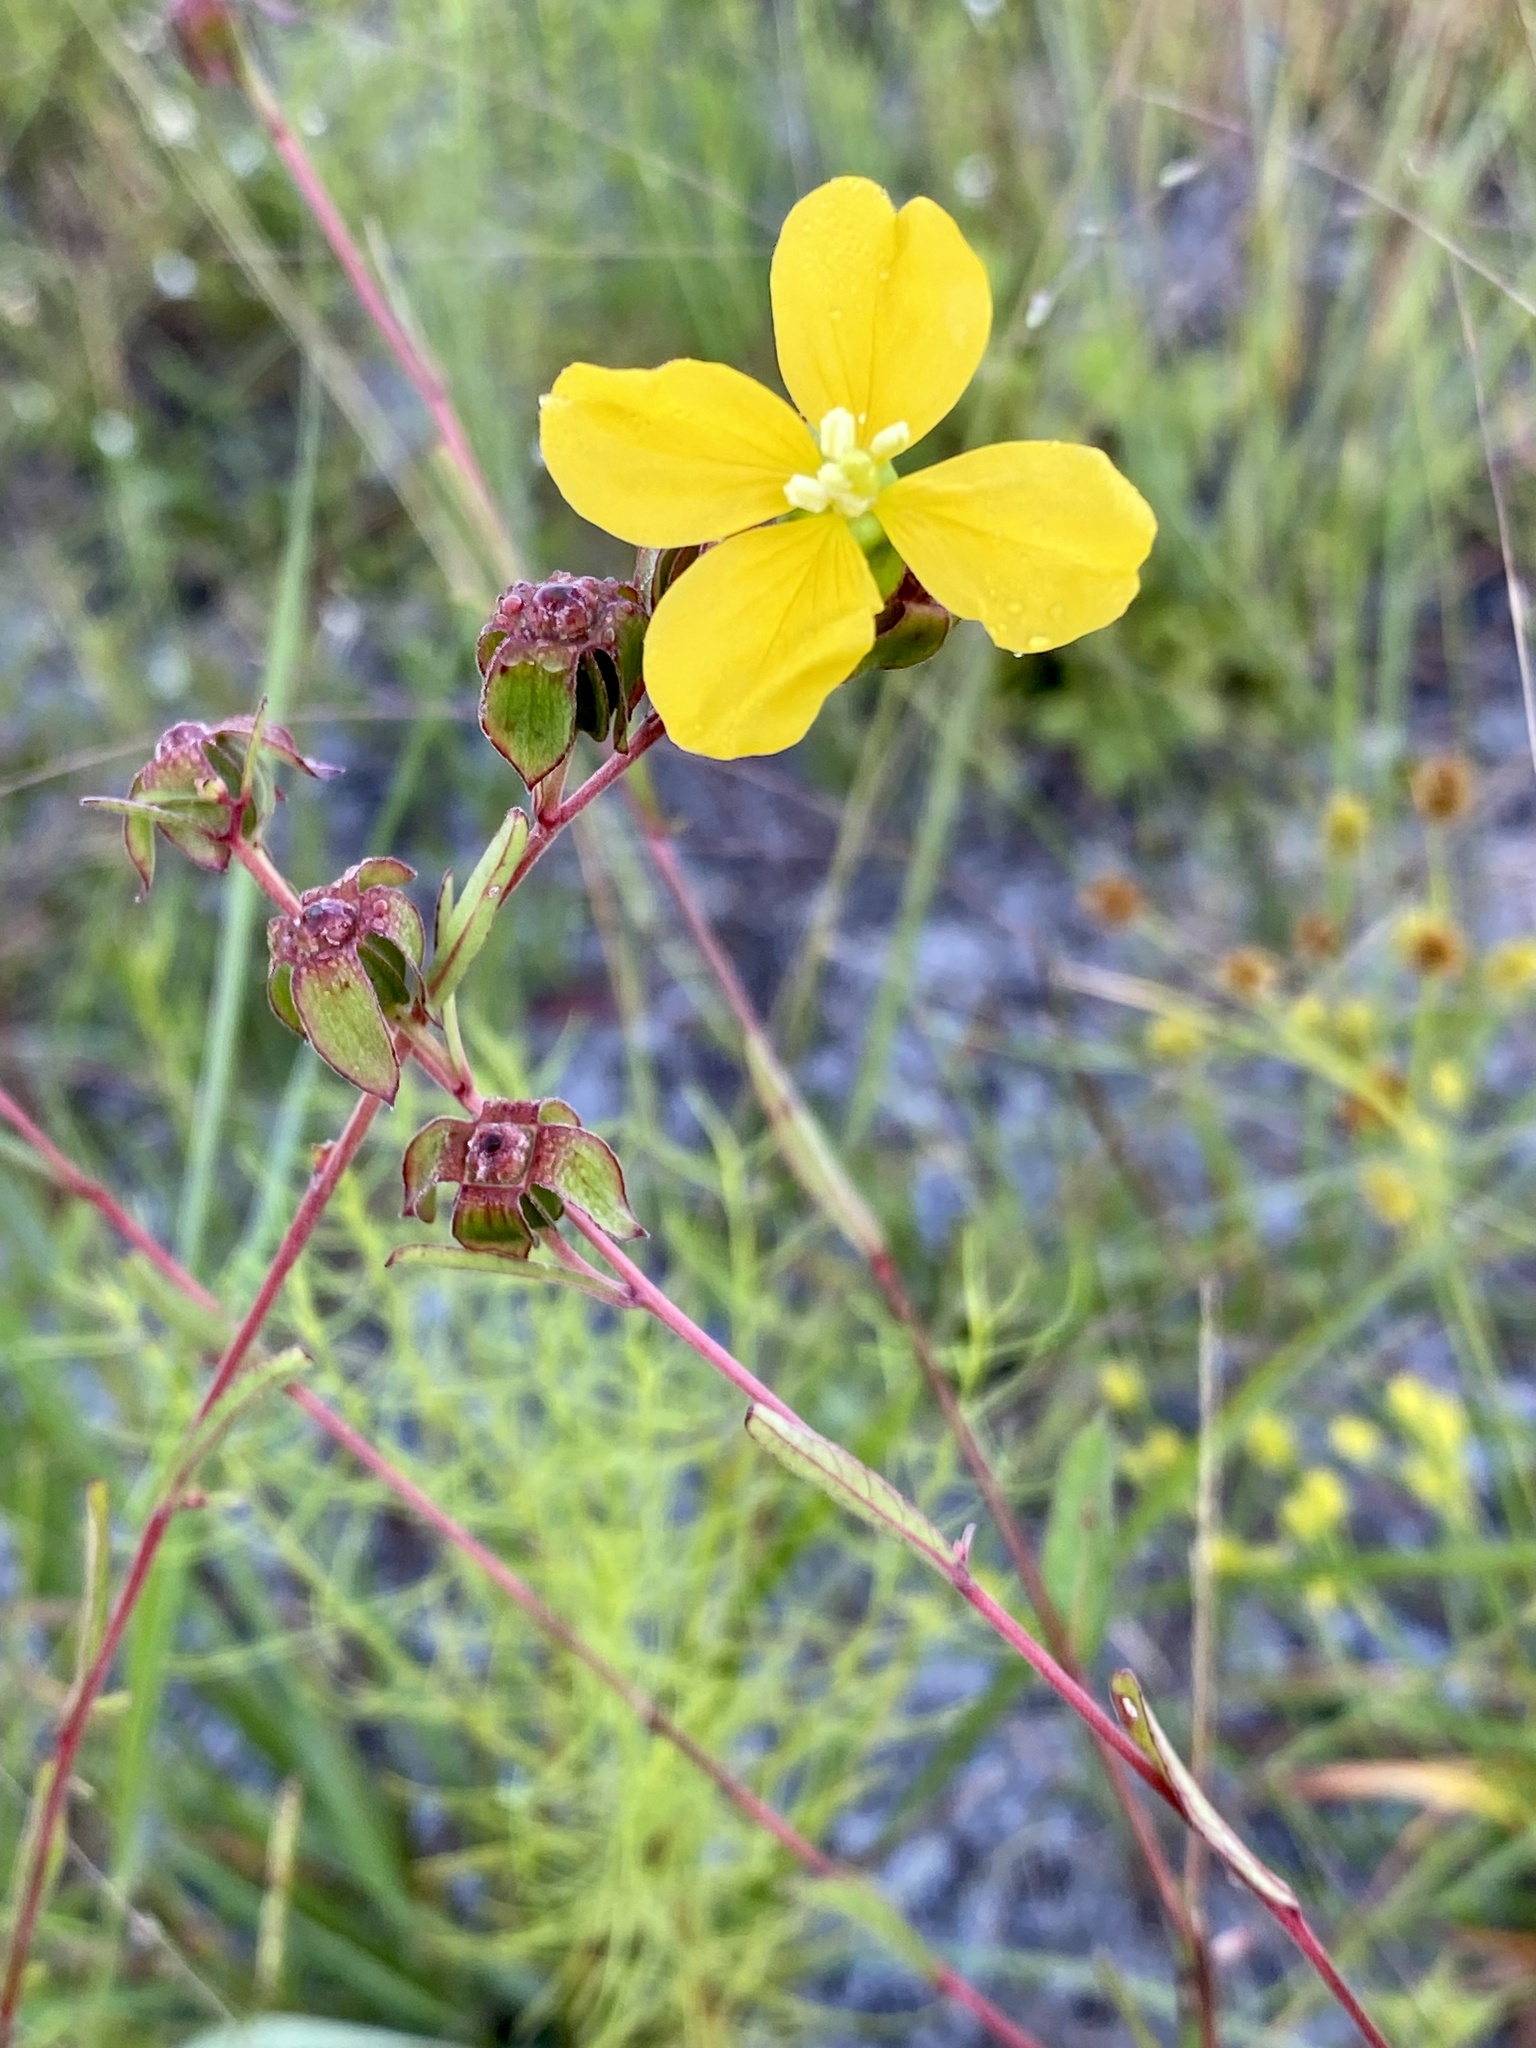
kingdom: Plantae
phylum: Tracheophyta
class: Magnoliopsida
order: Myrtales
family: Onagraceae
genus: Ludwigia
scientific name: Ludwigia maritima
